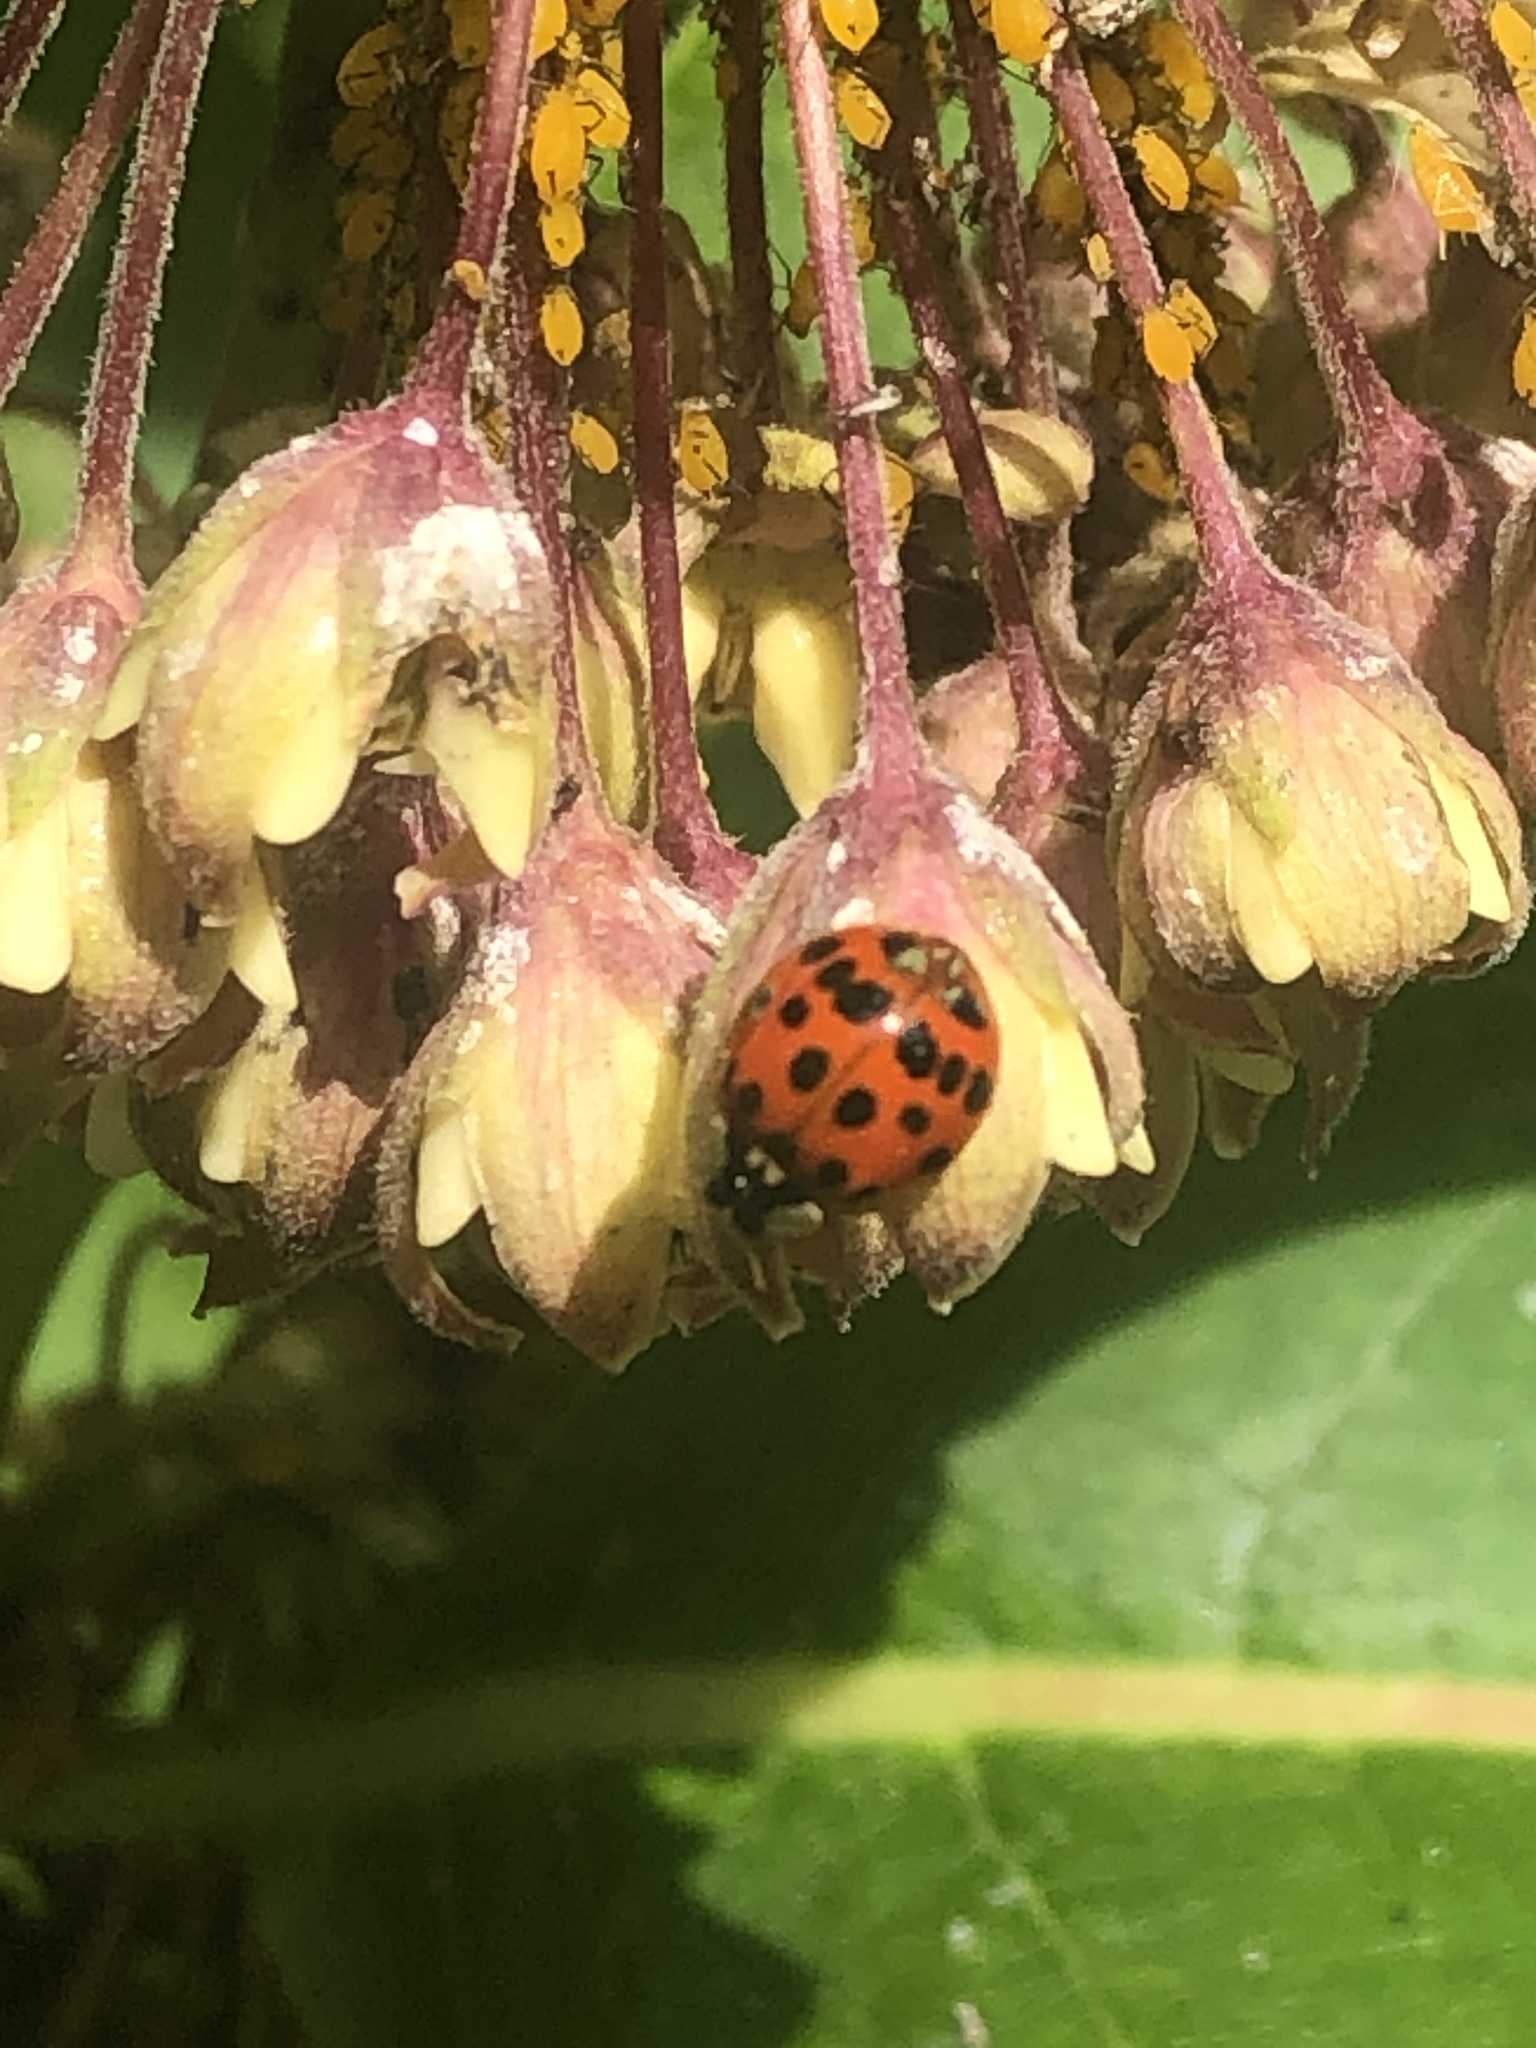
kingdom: Animalia
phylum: Arthropoda
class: Insecta
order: Coleoptera
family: Coccinellidae
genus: Harmonia
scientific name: Harmonia axyridis
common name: Harlequin ladybird
